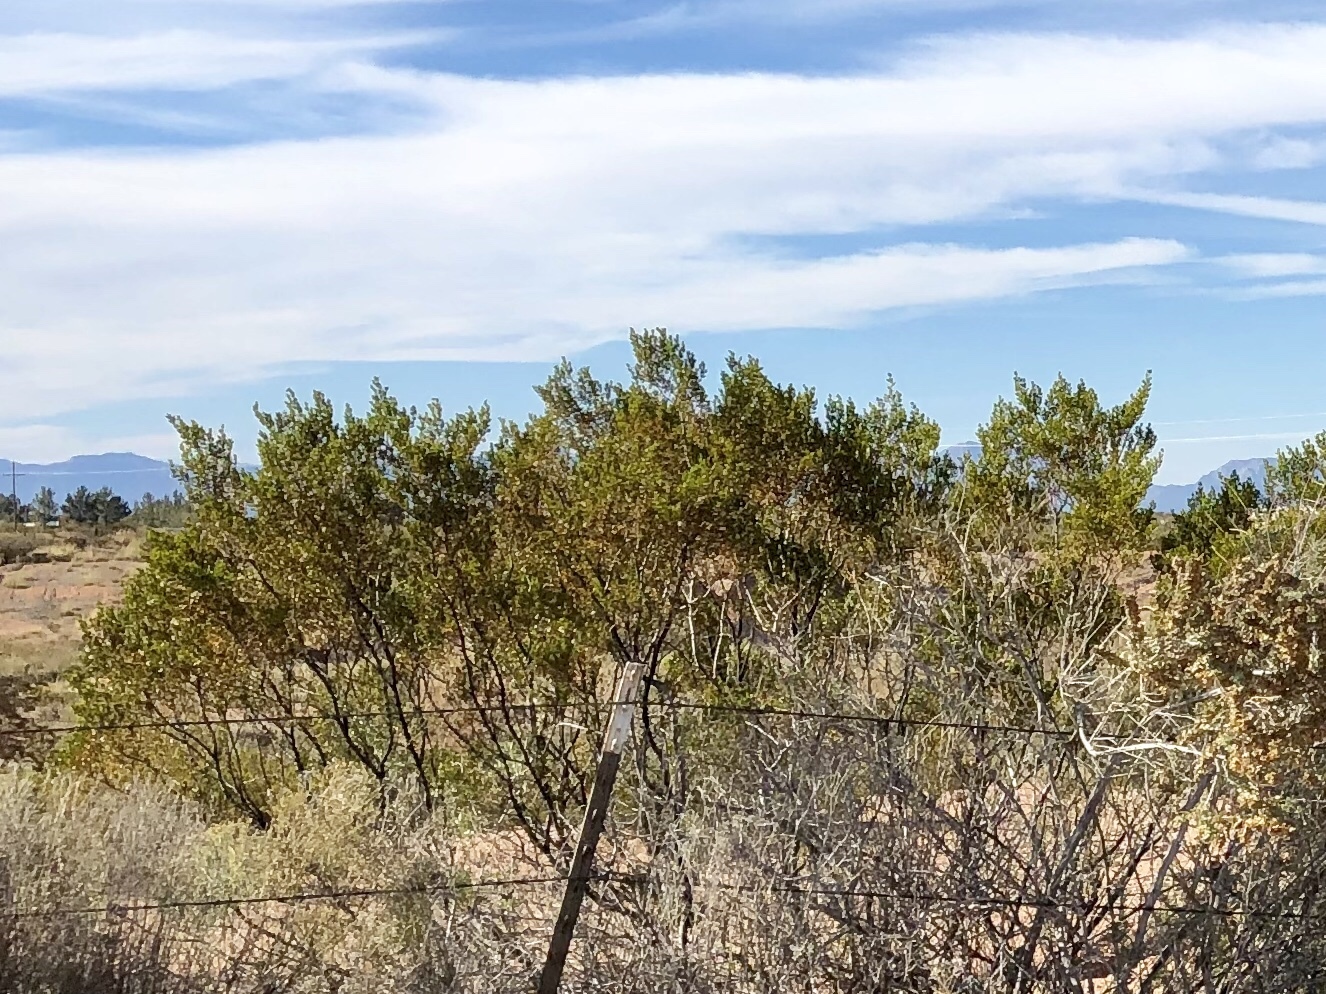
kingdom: Plantae
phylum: Tracheophyta
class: Magnoliopsida
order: Zygophyllales
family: Zygophyllaceae
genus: Larrea
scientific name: Larrea tridentata
